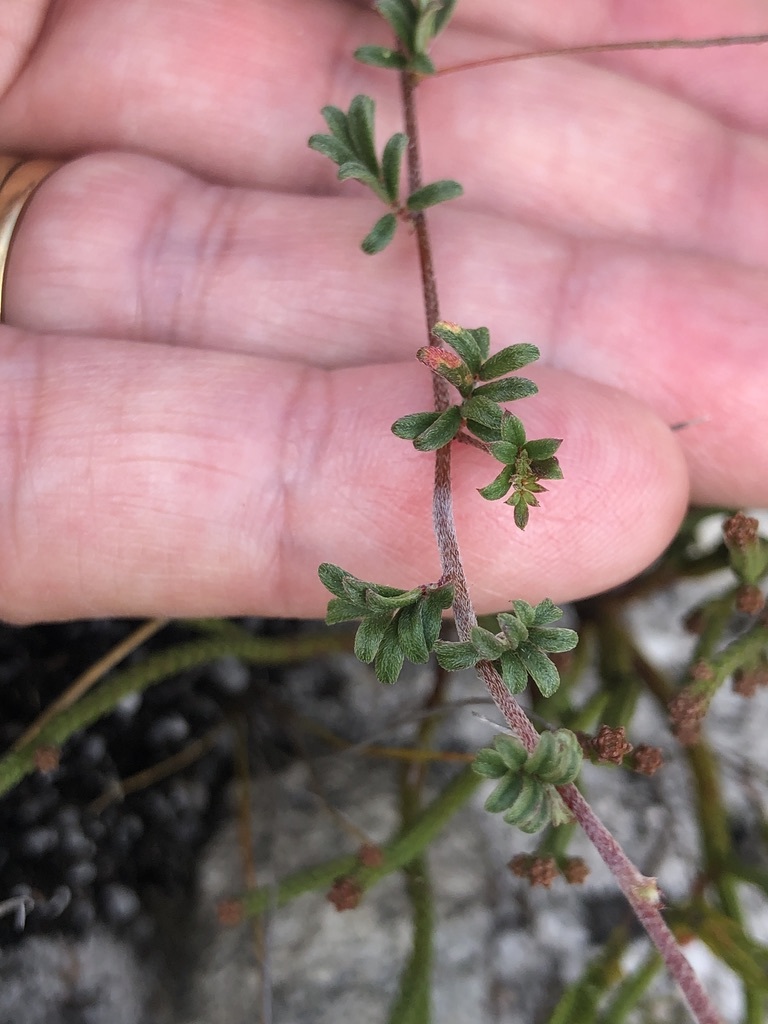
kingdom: Plantae
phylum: Tracheophyta
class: Magnoliopsida
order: Fabales
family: Fabaceae
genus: Indigofera
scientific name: Indigofera angustifolia
